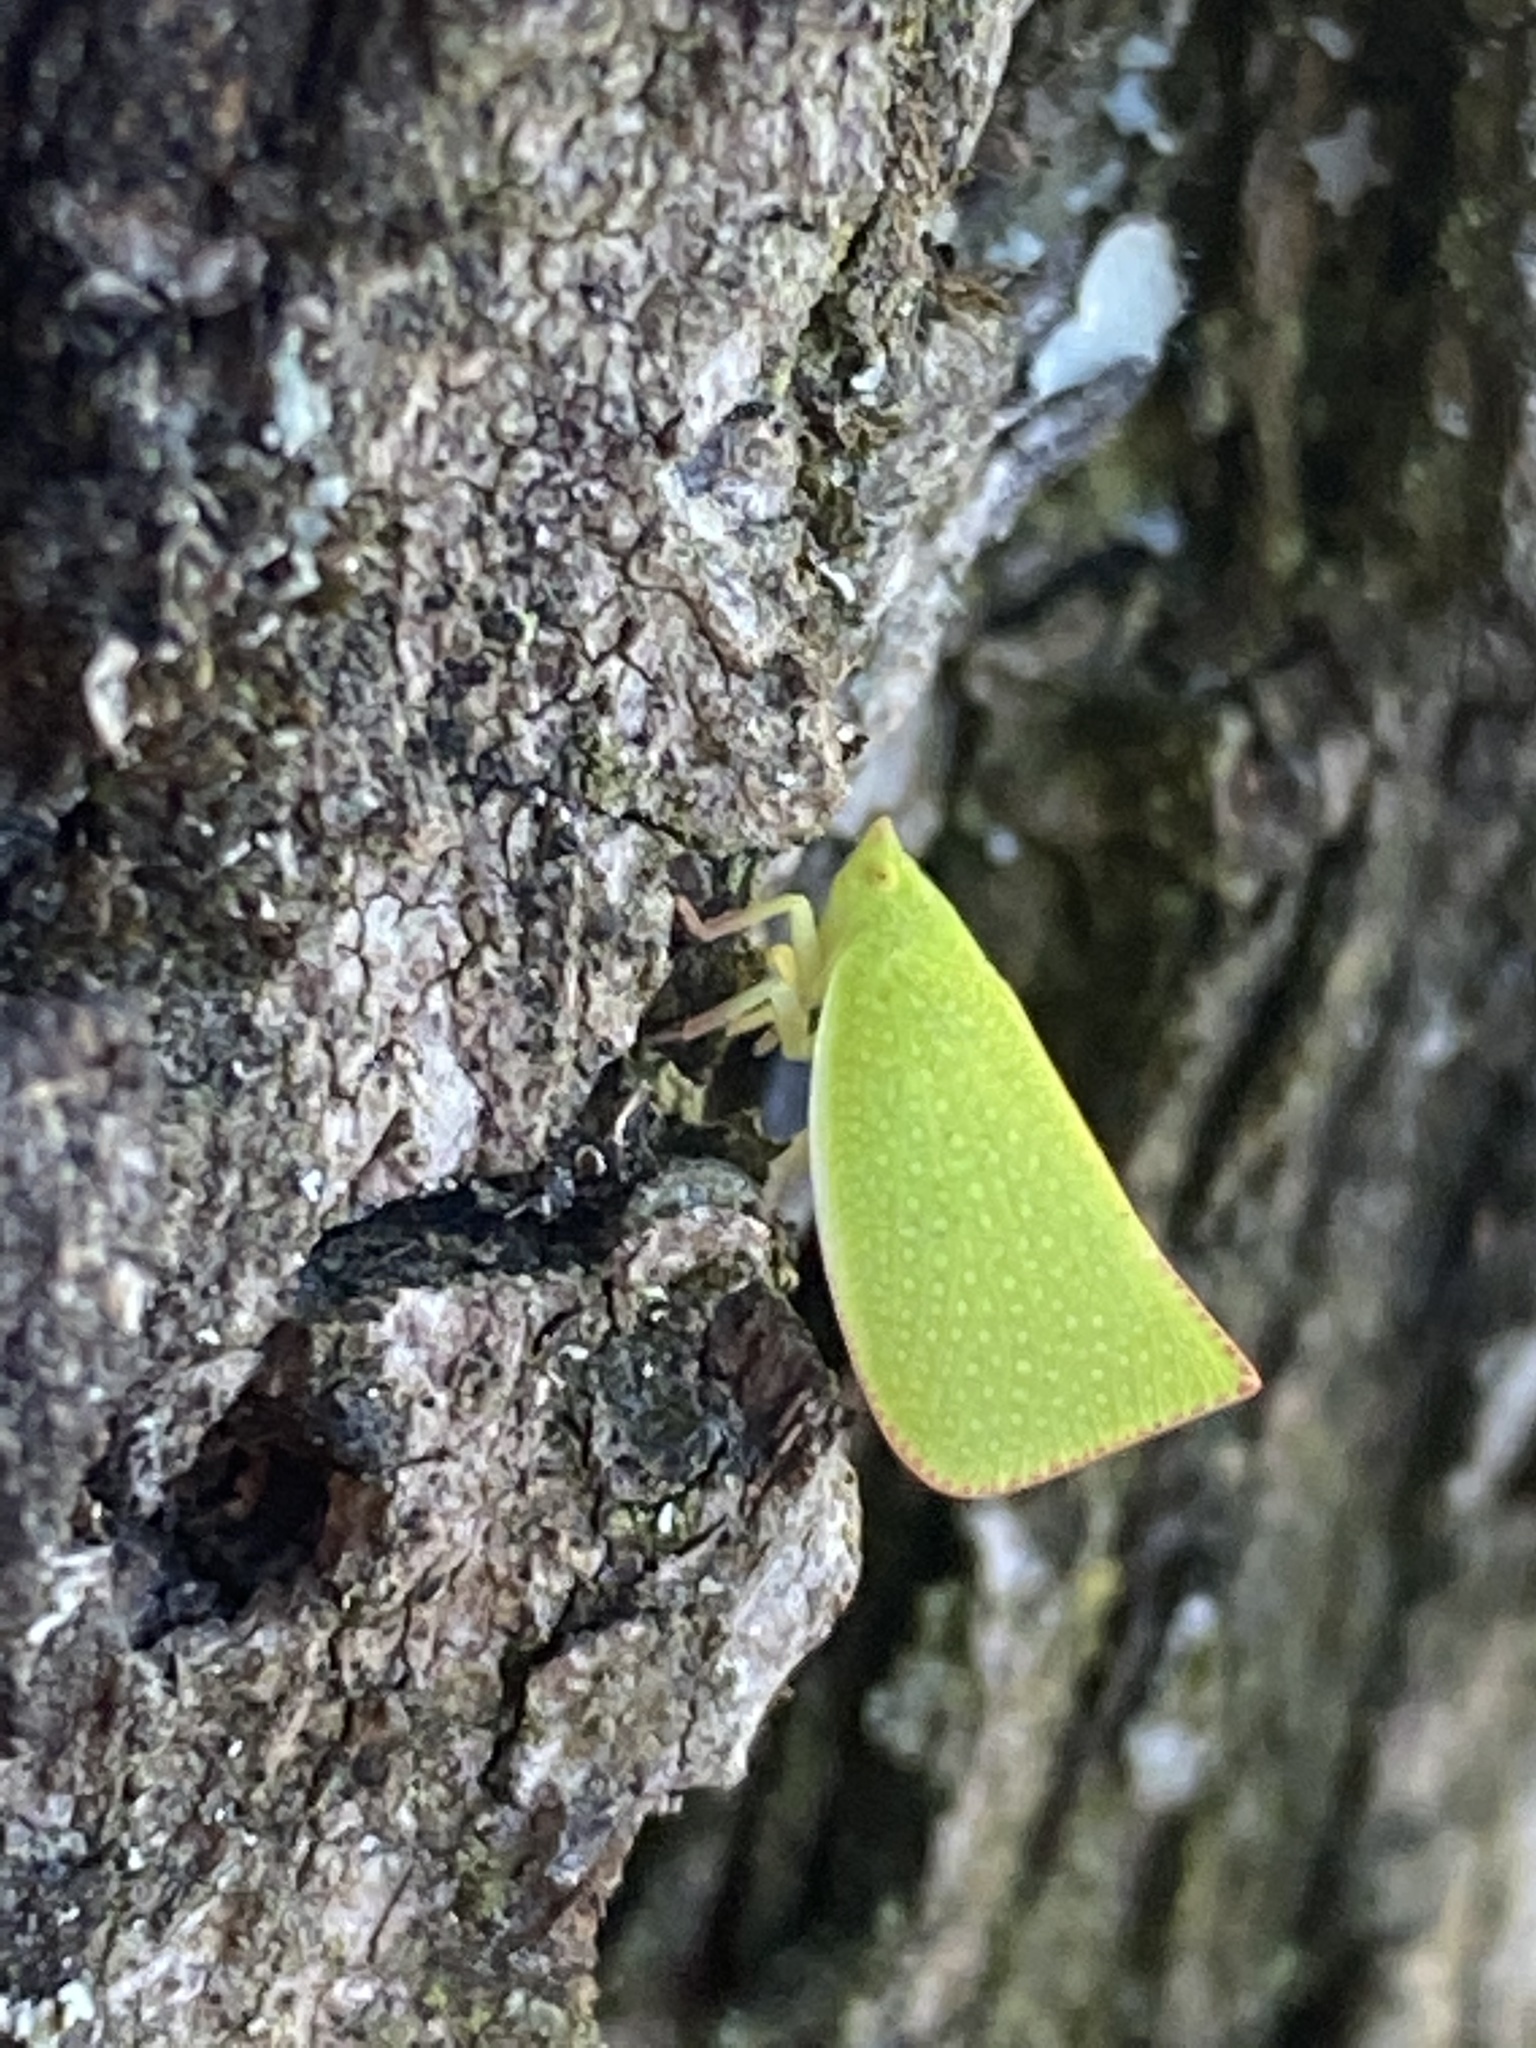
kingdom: Animalia
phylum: Arthropoda
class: Insecta
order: Hemiptera
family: Flatidae
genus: Siphanta
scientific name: Siphanta acuta
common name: Torpedo bug
